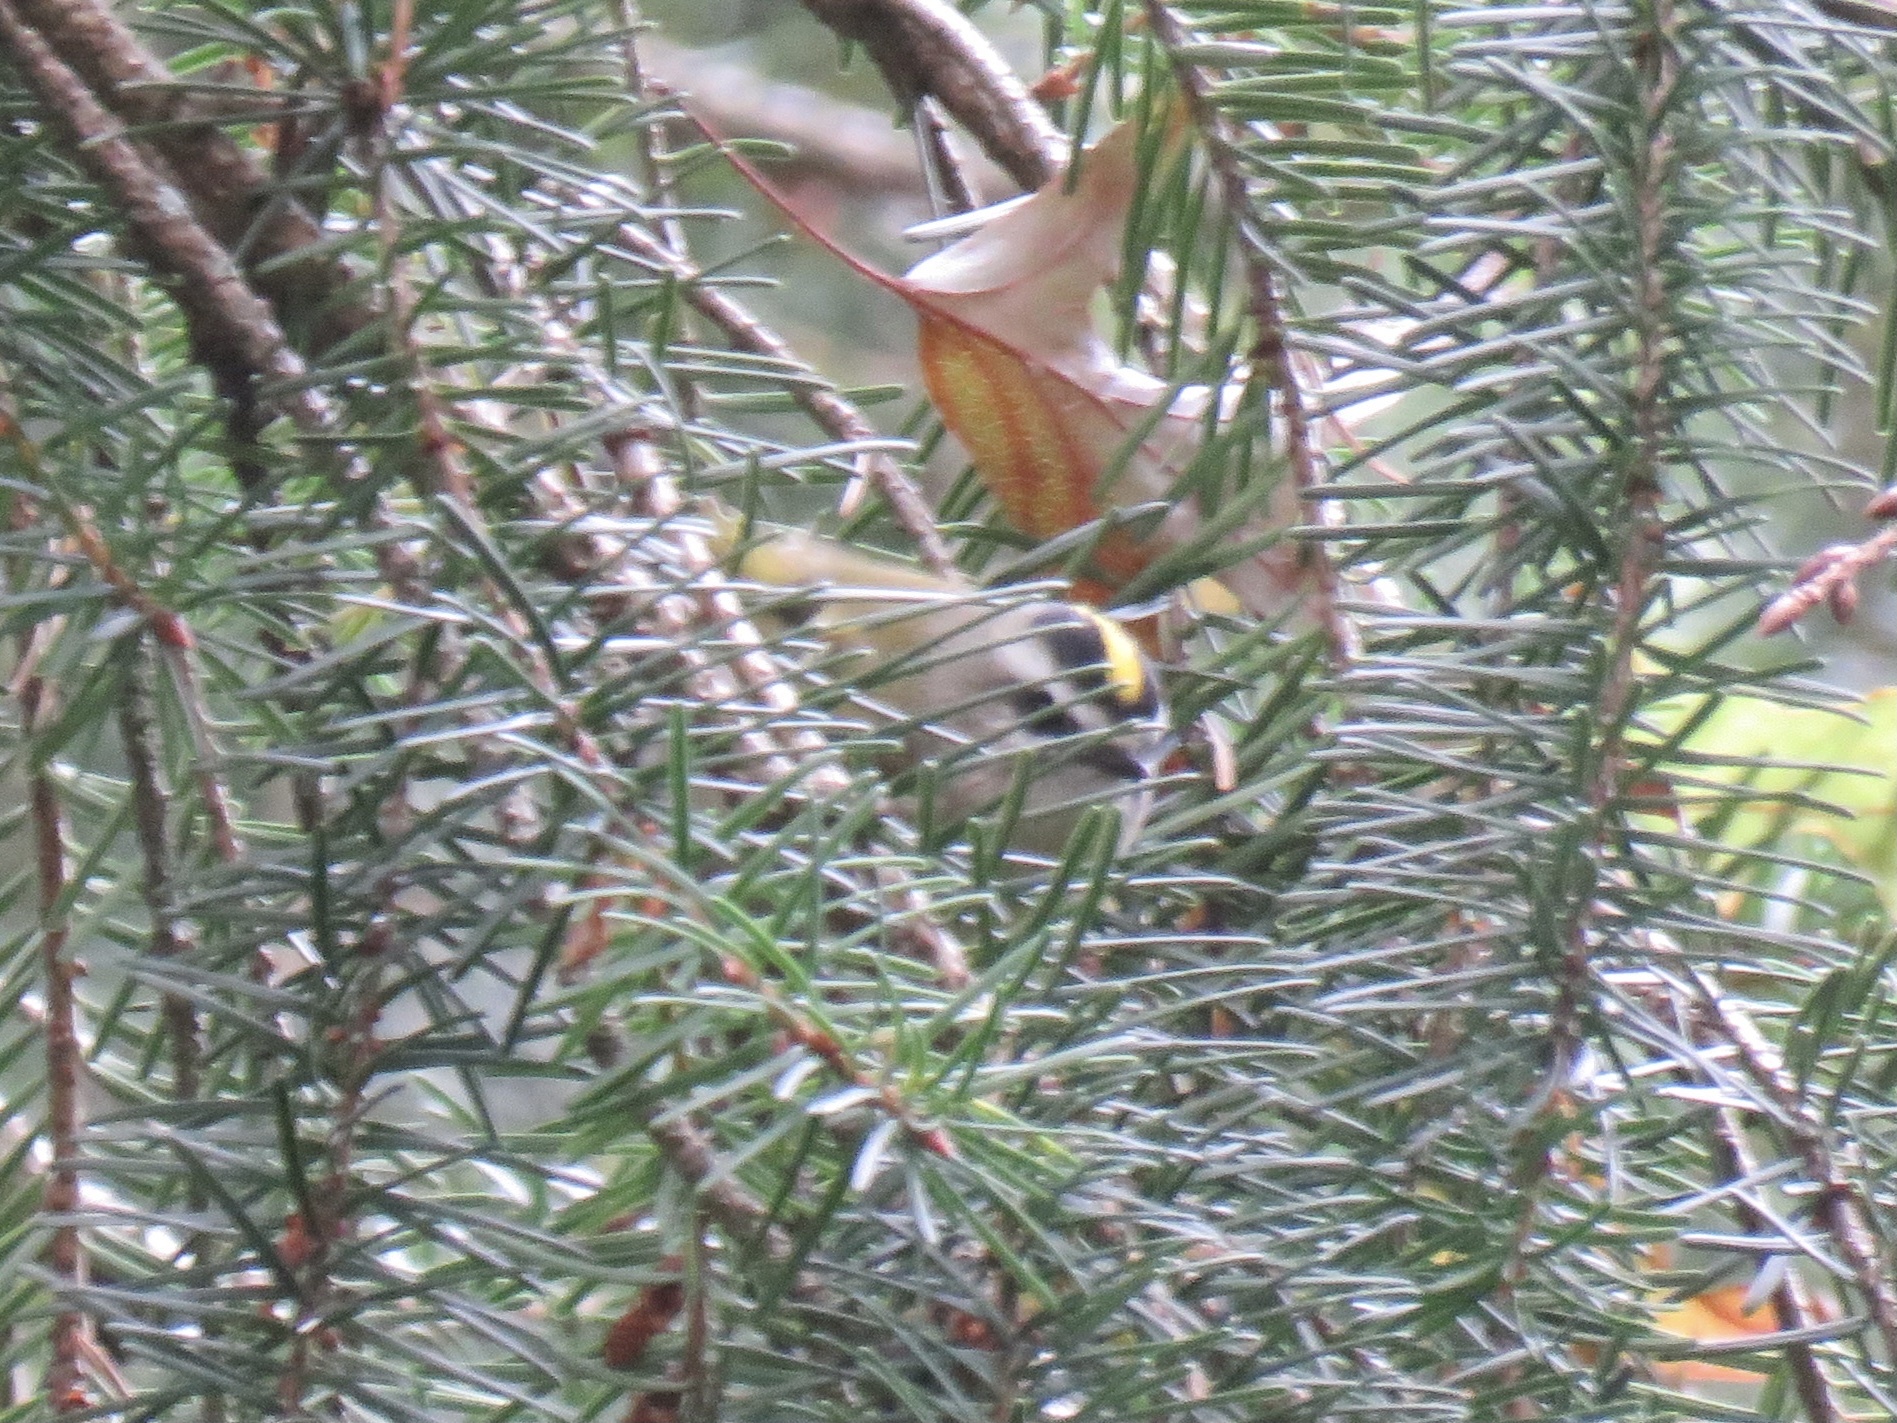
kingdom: Animalia
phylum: Chordata
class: Aves
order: Passeriformes
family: Regulidae
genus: Regulus
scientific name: Regulus satrapa
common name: Golden-crowned kinglet
